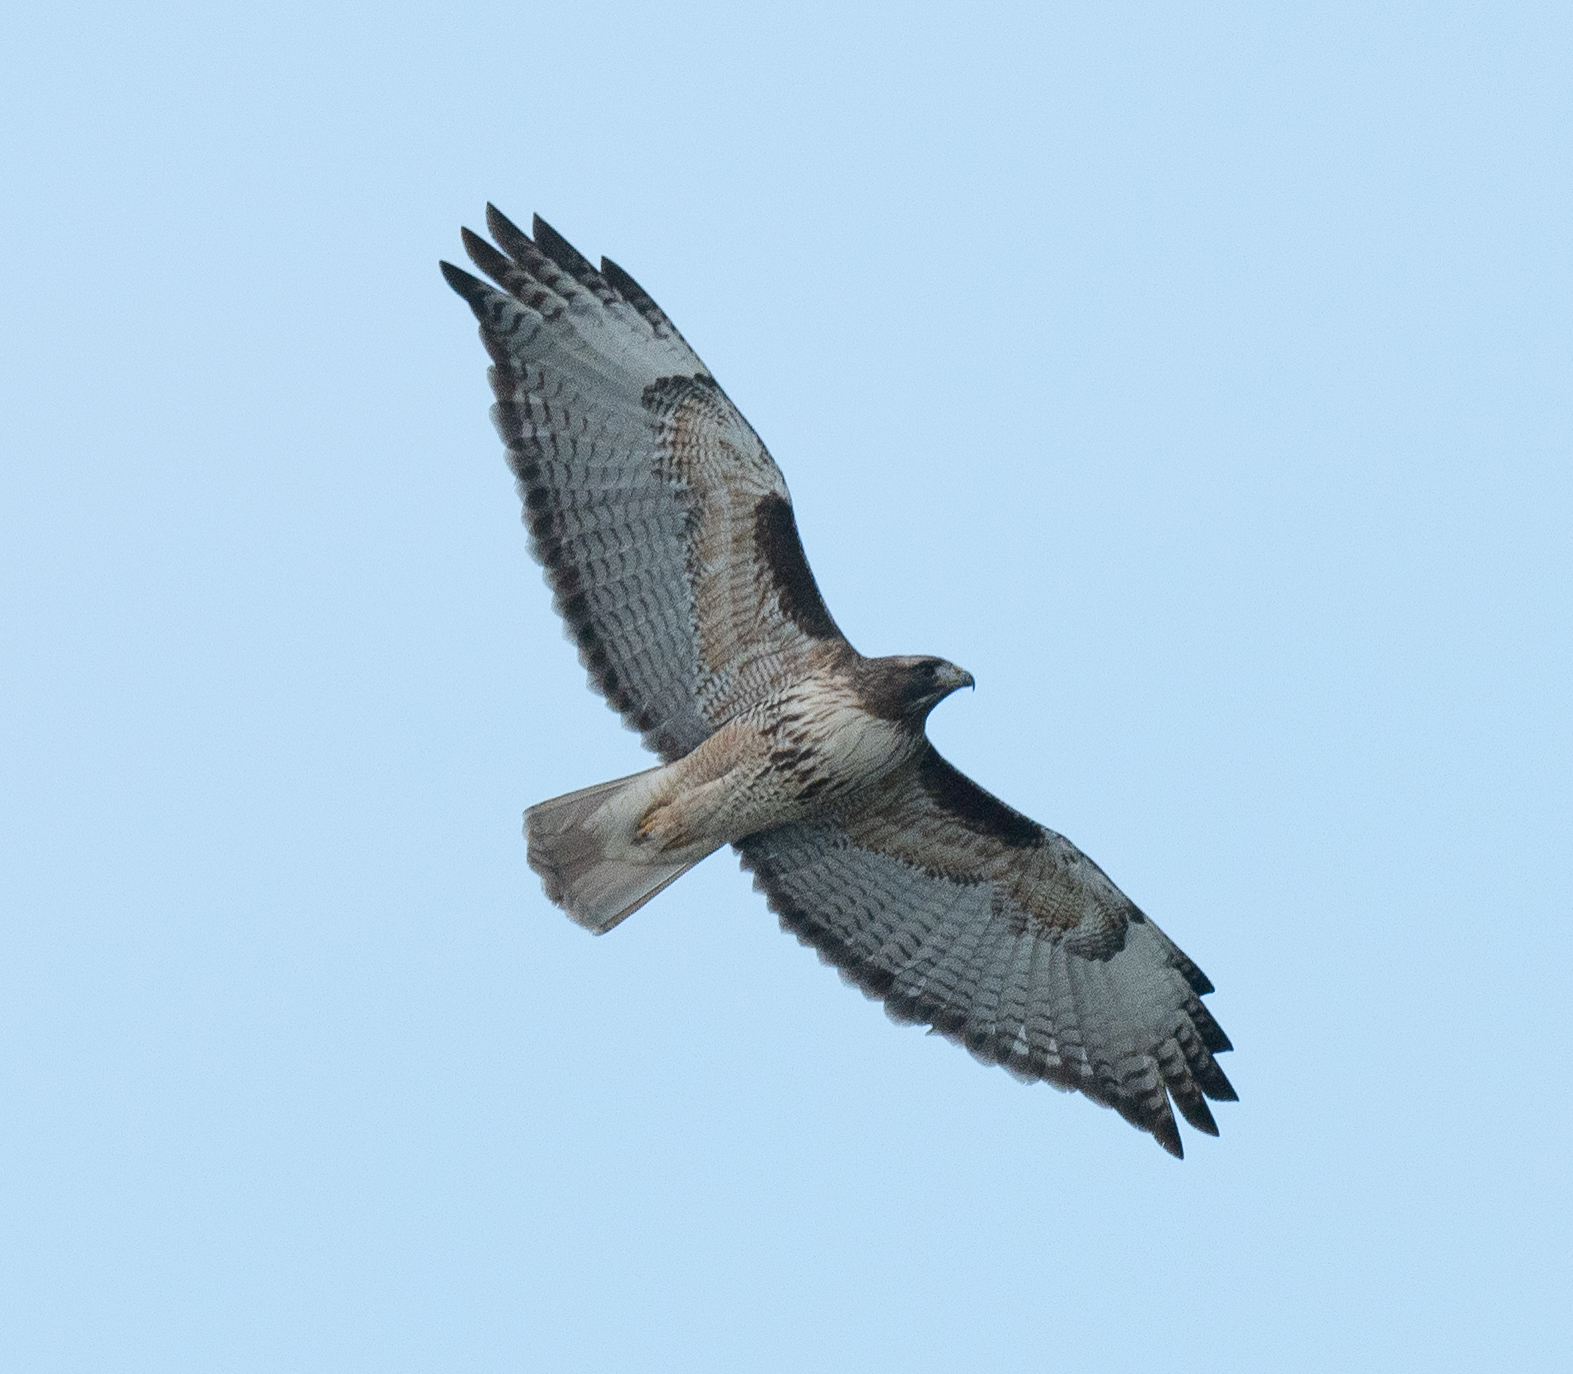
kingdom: Animalia
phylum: Chordata
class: Aves
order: Accipitriformes
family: Accipitridae
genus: Buteo
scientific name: Buteo jamaicensis
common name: Red-tailed hawk
